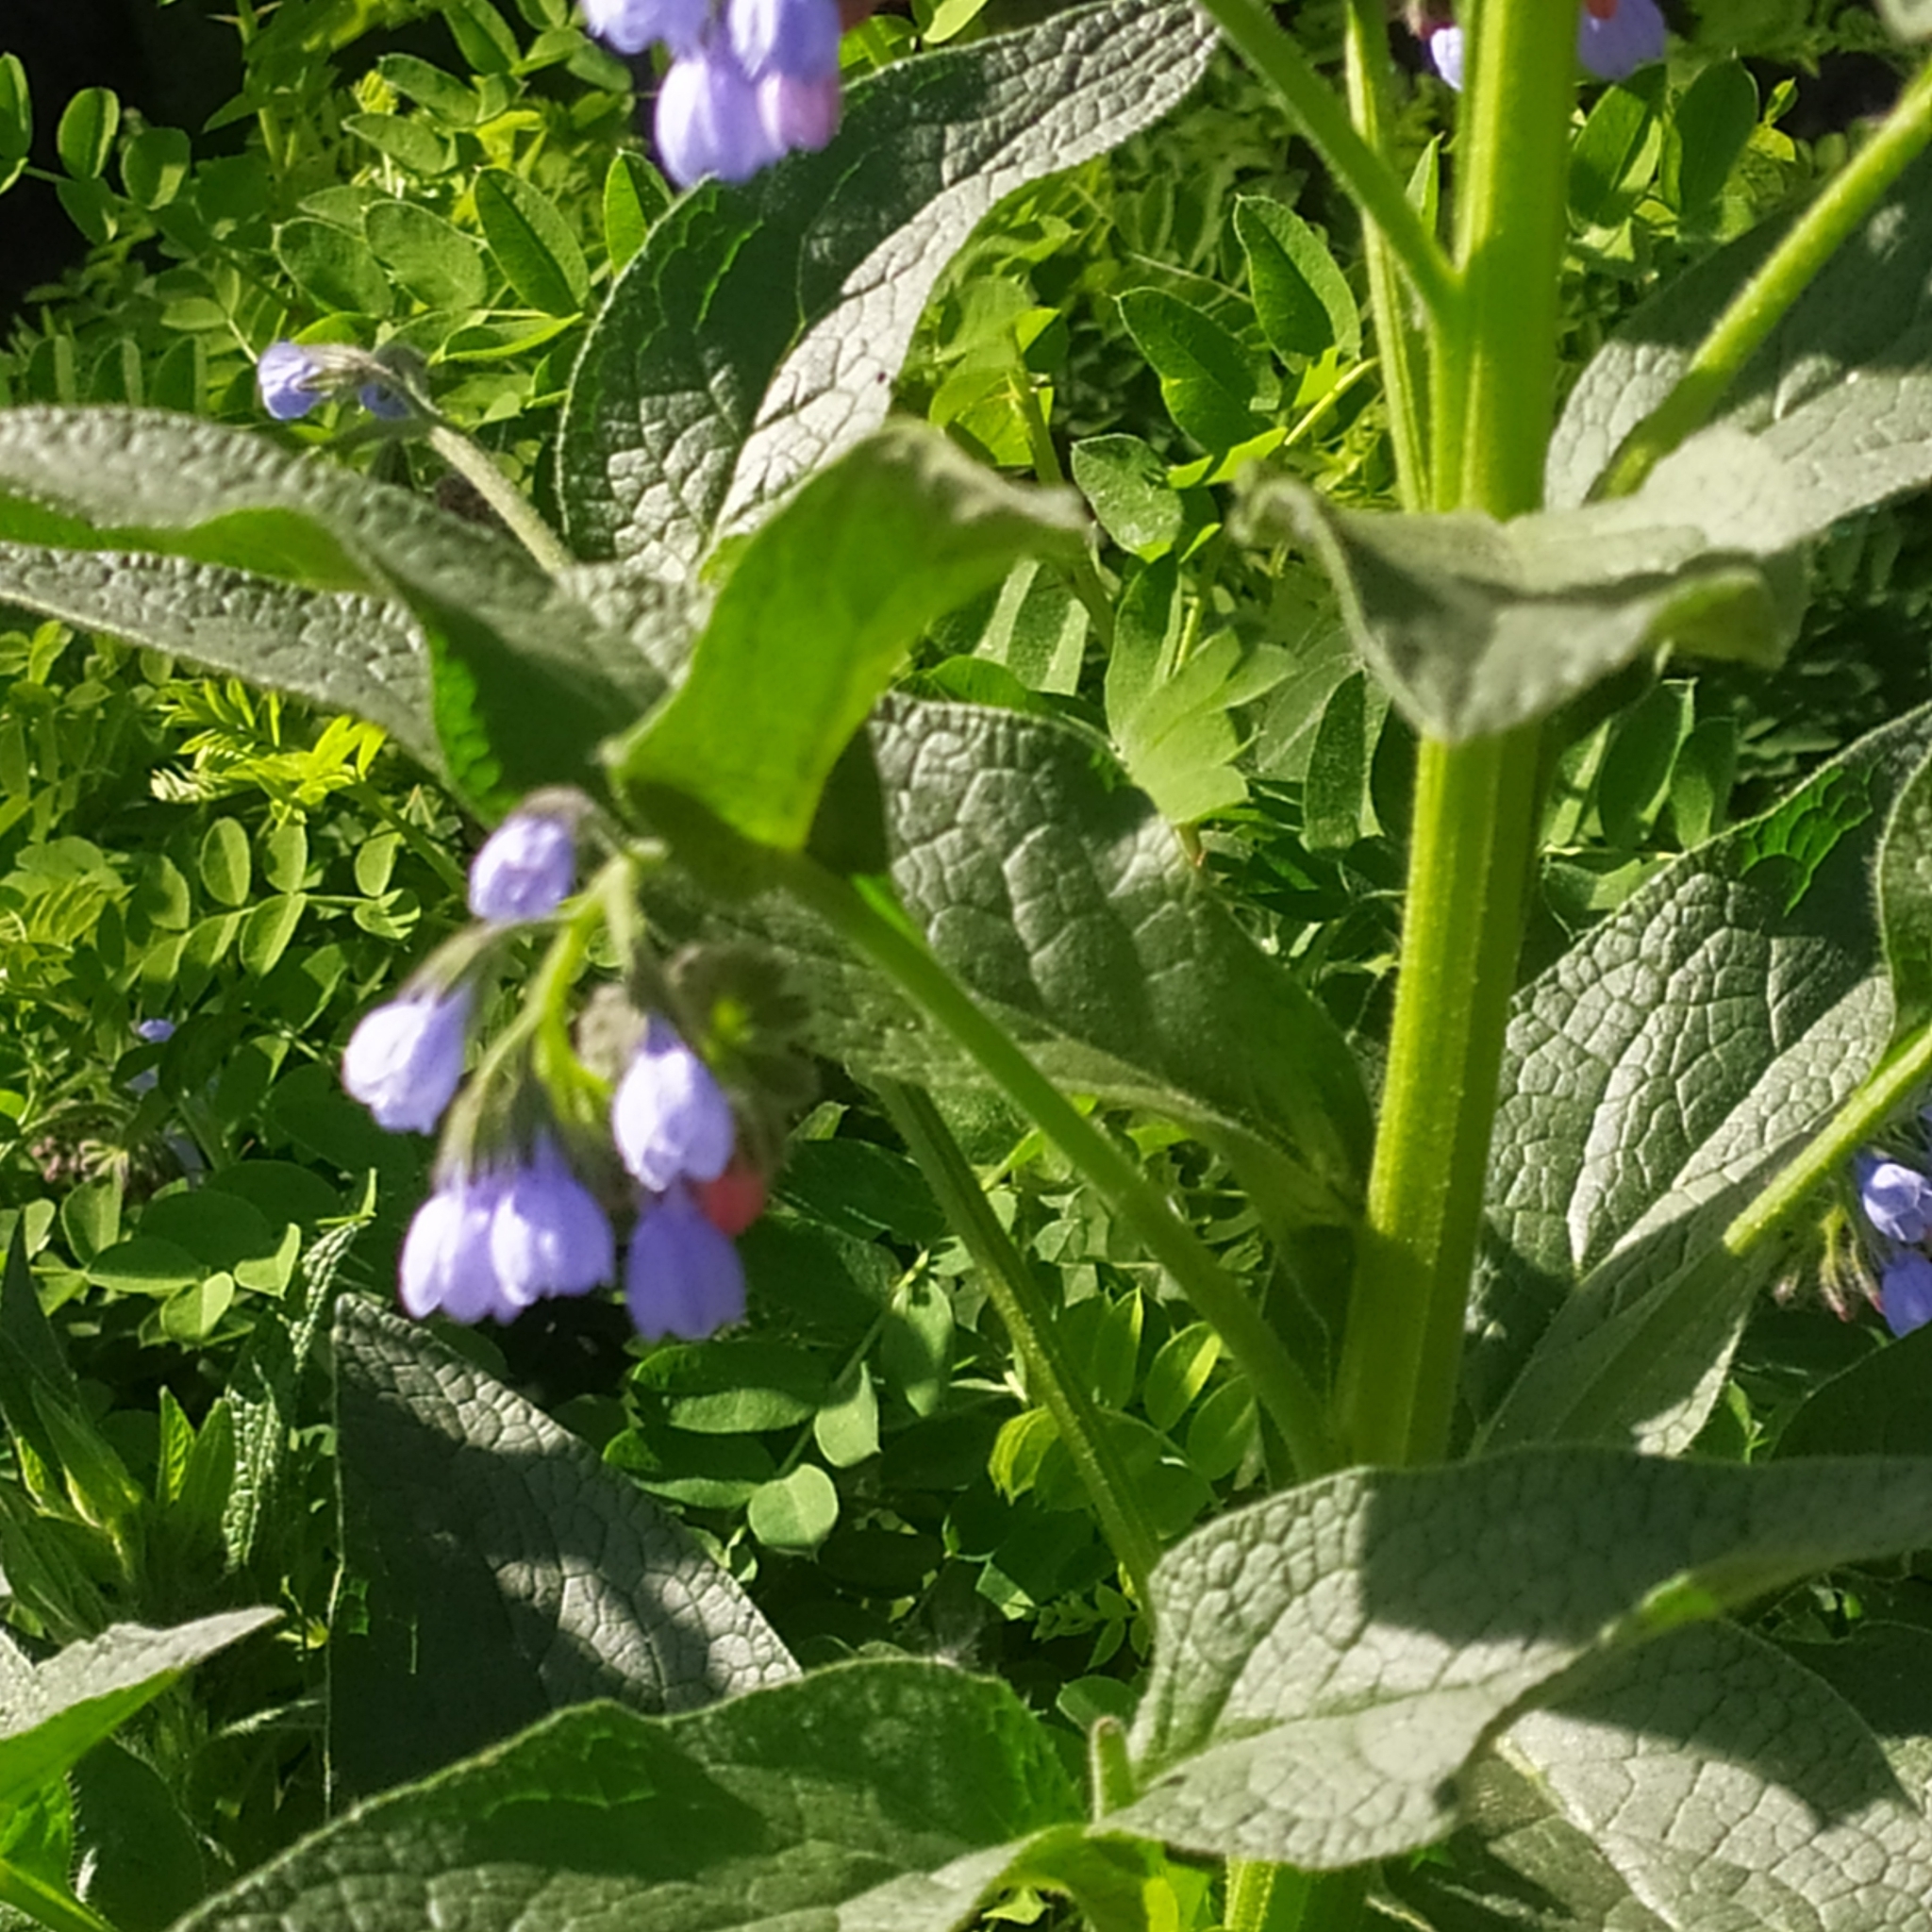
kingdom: Plantae
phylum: Tracheophyta
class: Magnoliopsida
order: Boraginales
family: Boraginaceae
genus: Symphytum
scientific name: Symphytum caucasicum
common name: Caucasian comfrey
